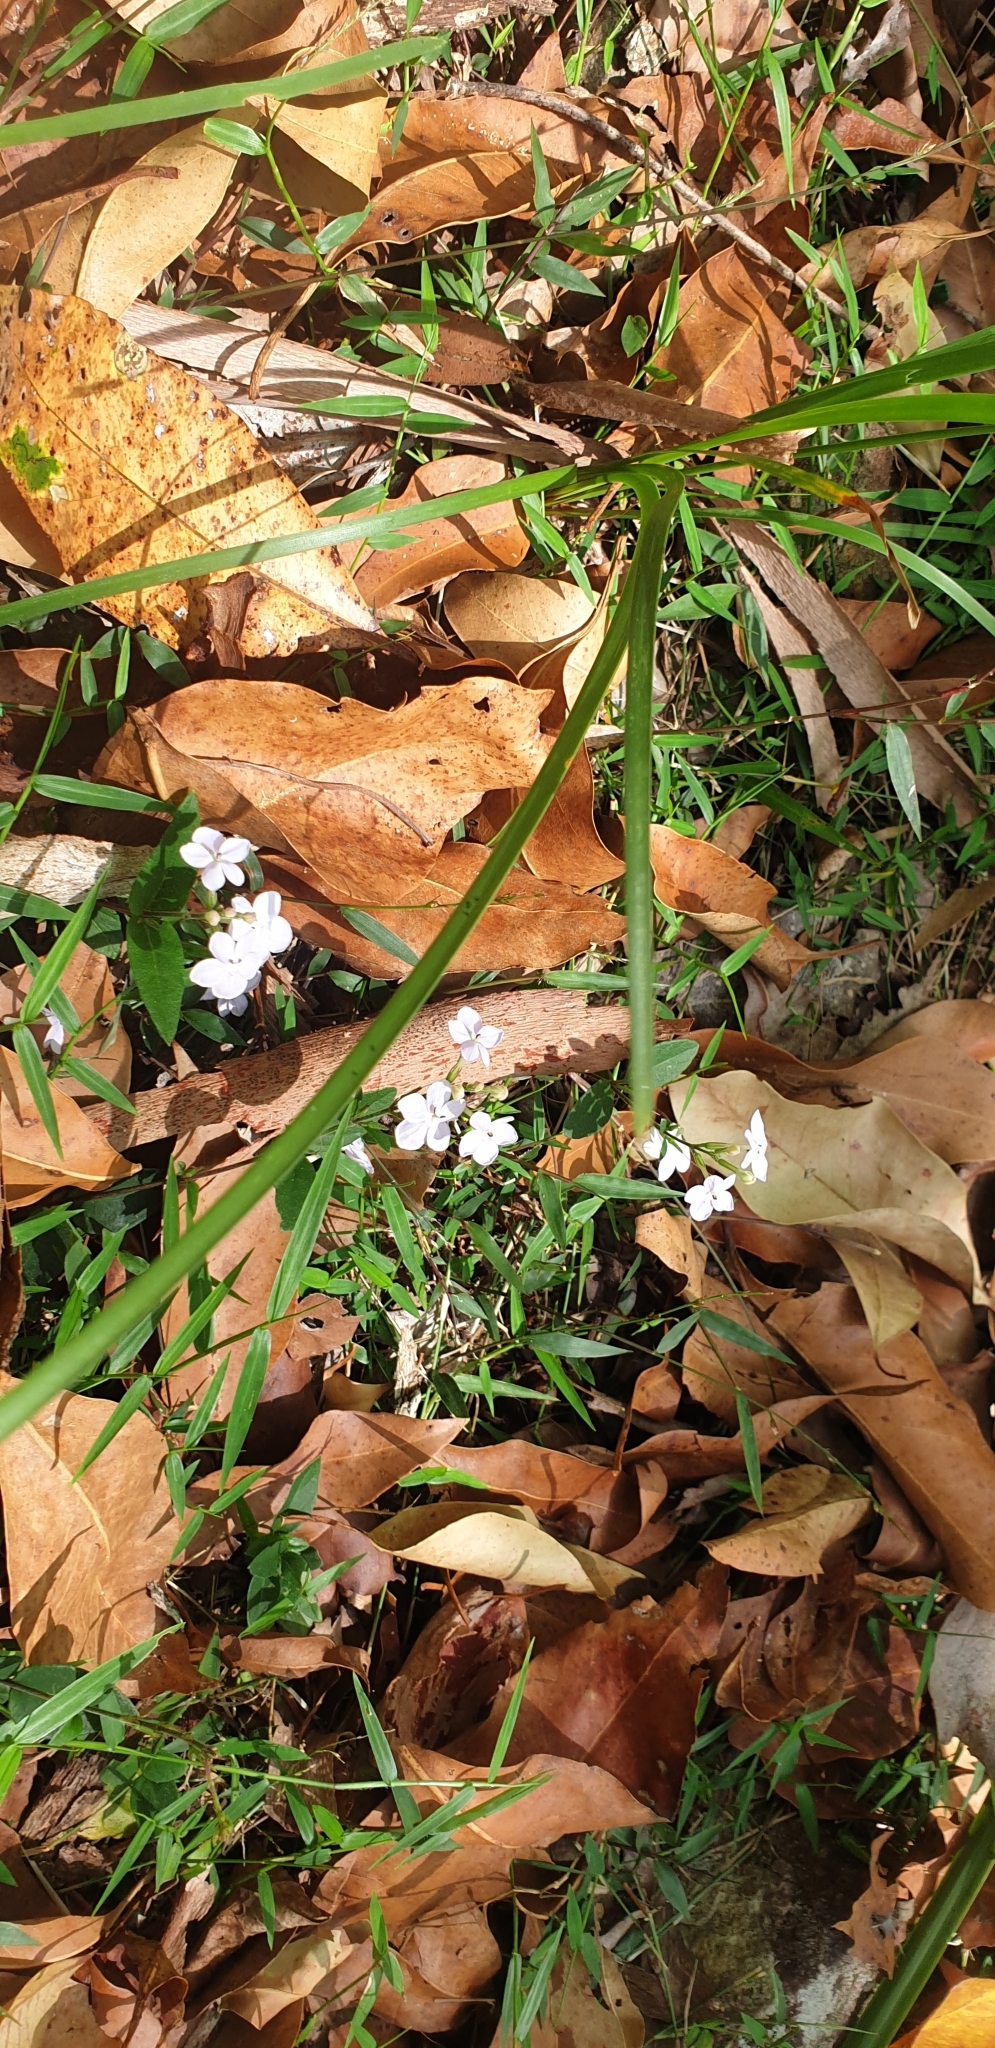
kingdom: Plantae
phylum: Tracheophyta
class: Magnoliopsida
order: Lamiales
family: Acanthaceae
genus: Pseuderanthemum
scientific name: Pseuderanthemum variabile
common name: Night and afternoon
